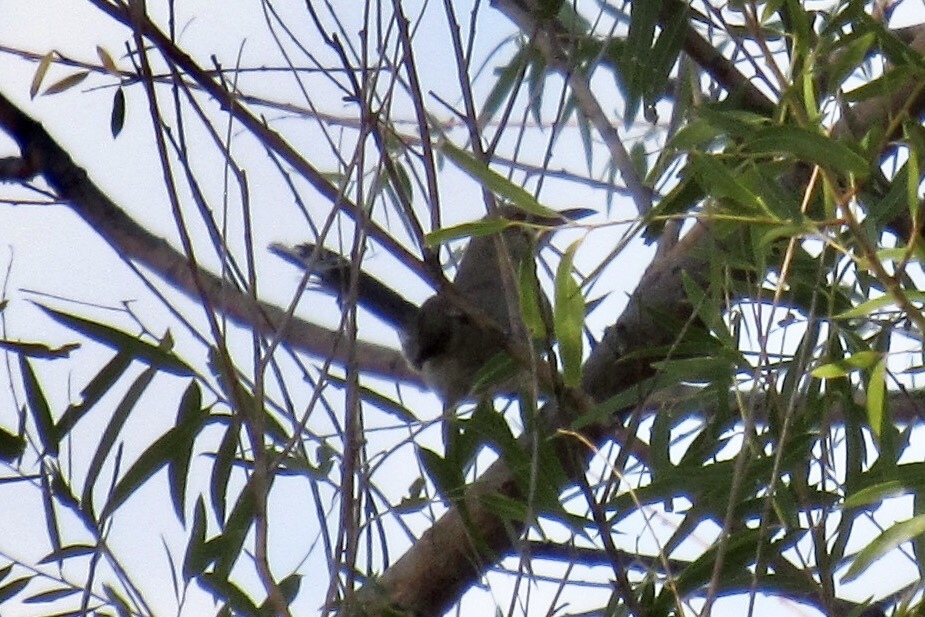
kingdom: Animalia
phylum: Chordata
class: Aves
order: Passeriformes
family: Mimidae
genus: Mimus
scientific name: Mimus polyglottos
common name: Northern mockingbird
